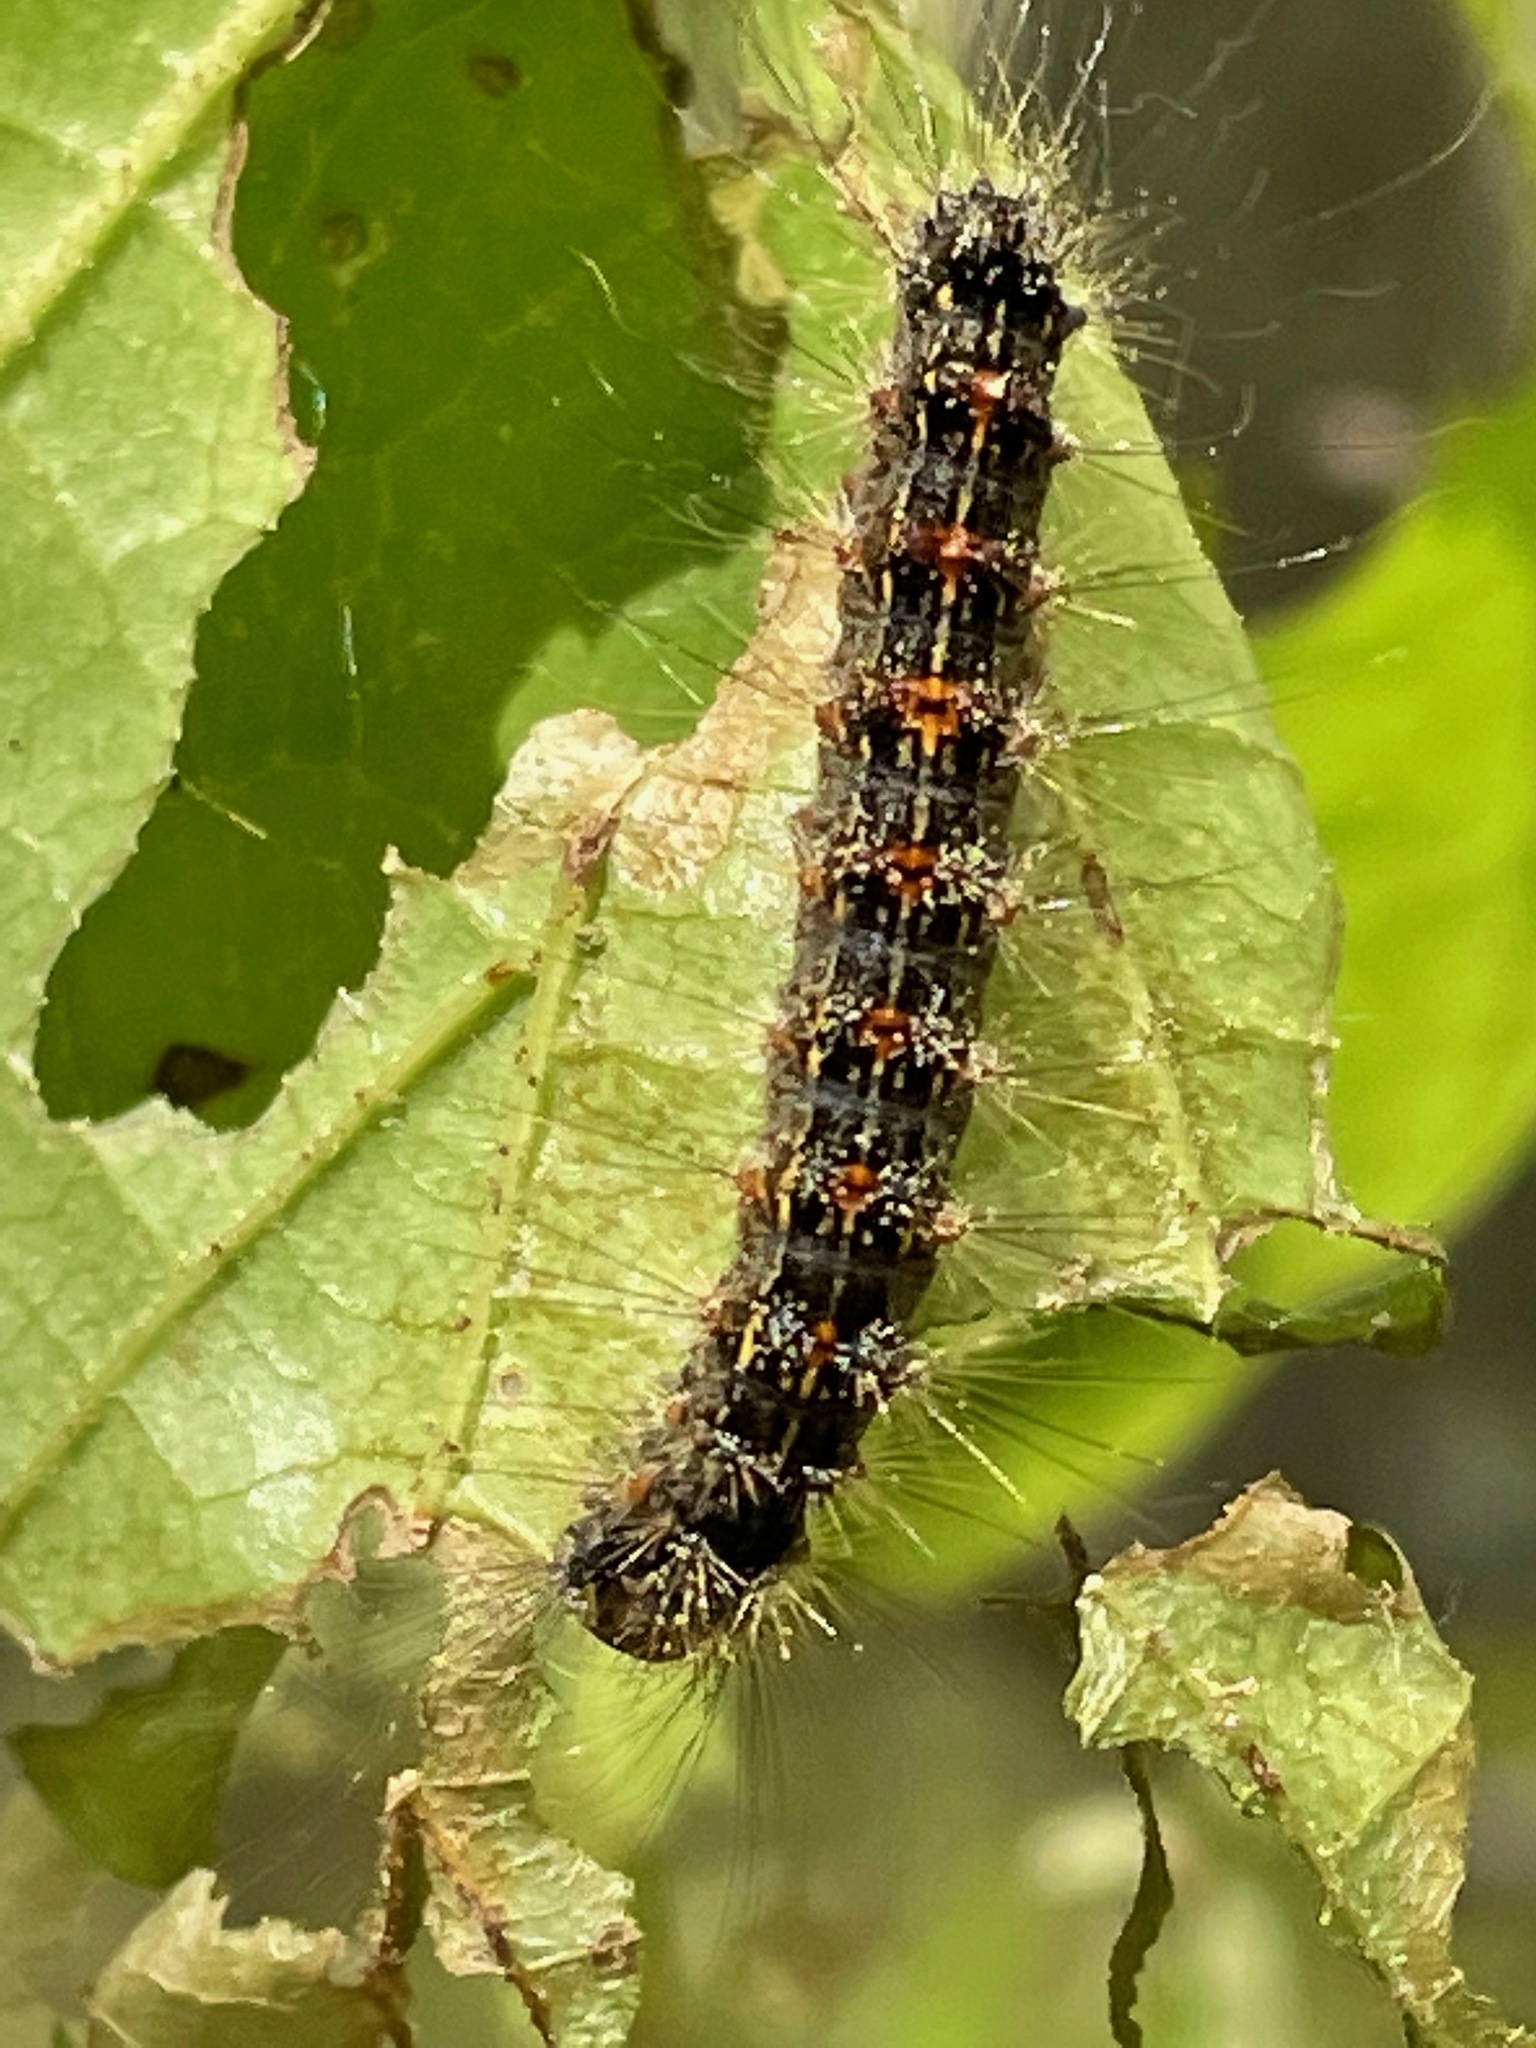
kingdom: Animalia
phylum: Arthropoda
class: Insecta
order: Lepidoptera
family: Erebidae
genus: Lymantria
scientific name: Lymantria dispar
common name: Gypsy moth
